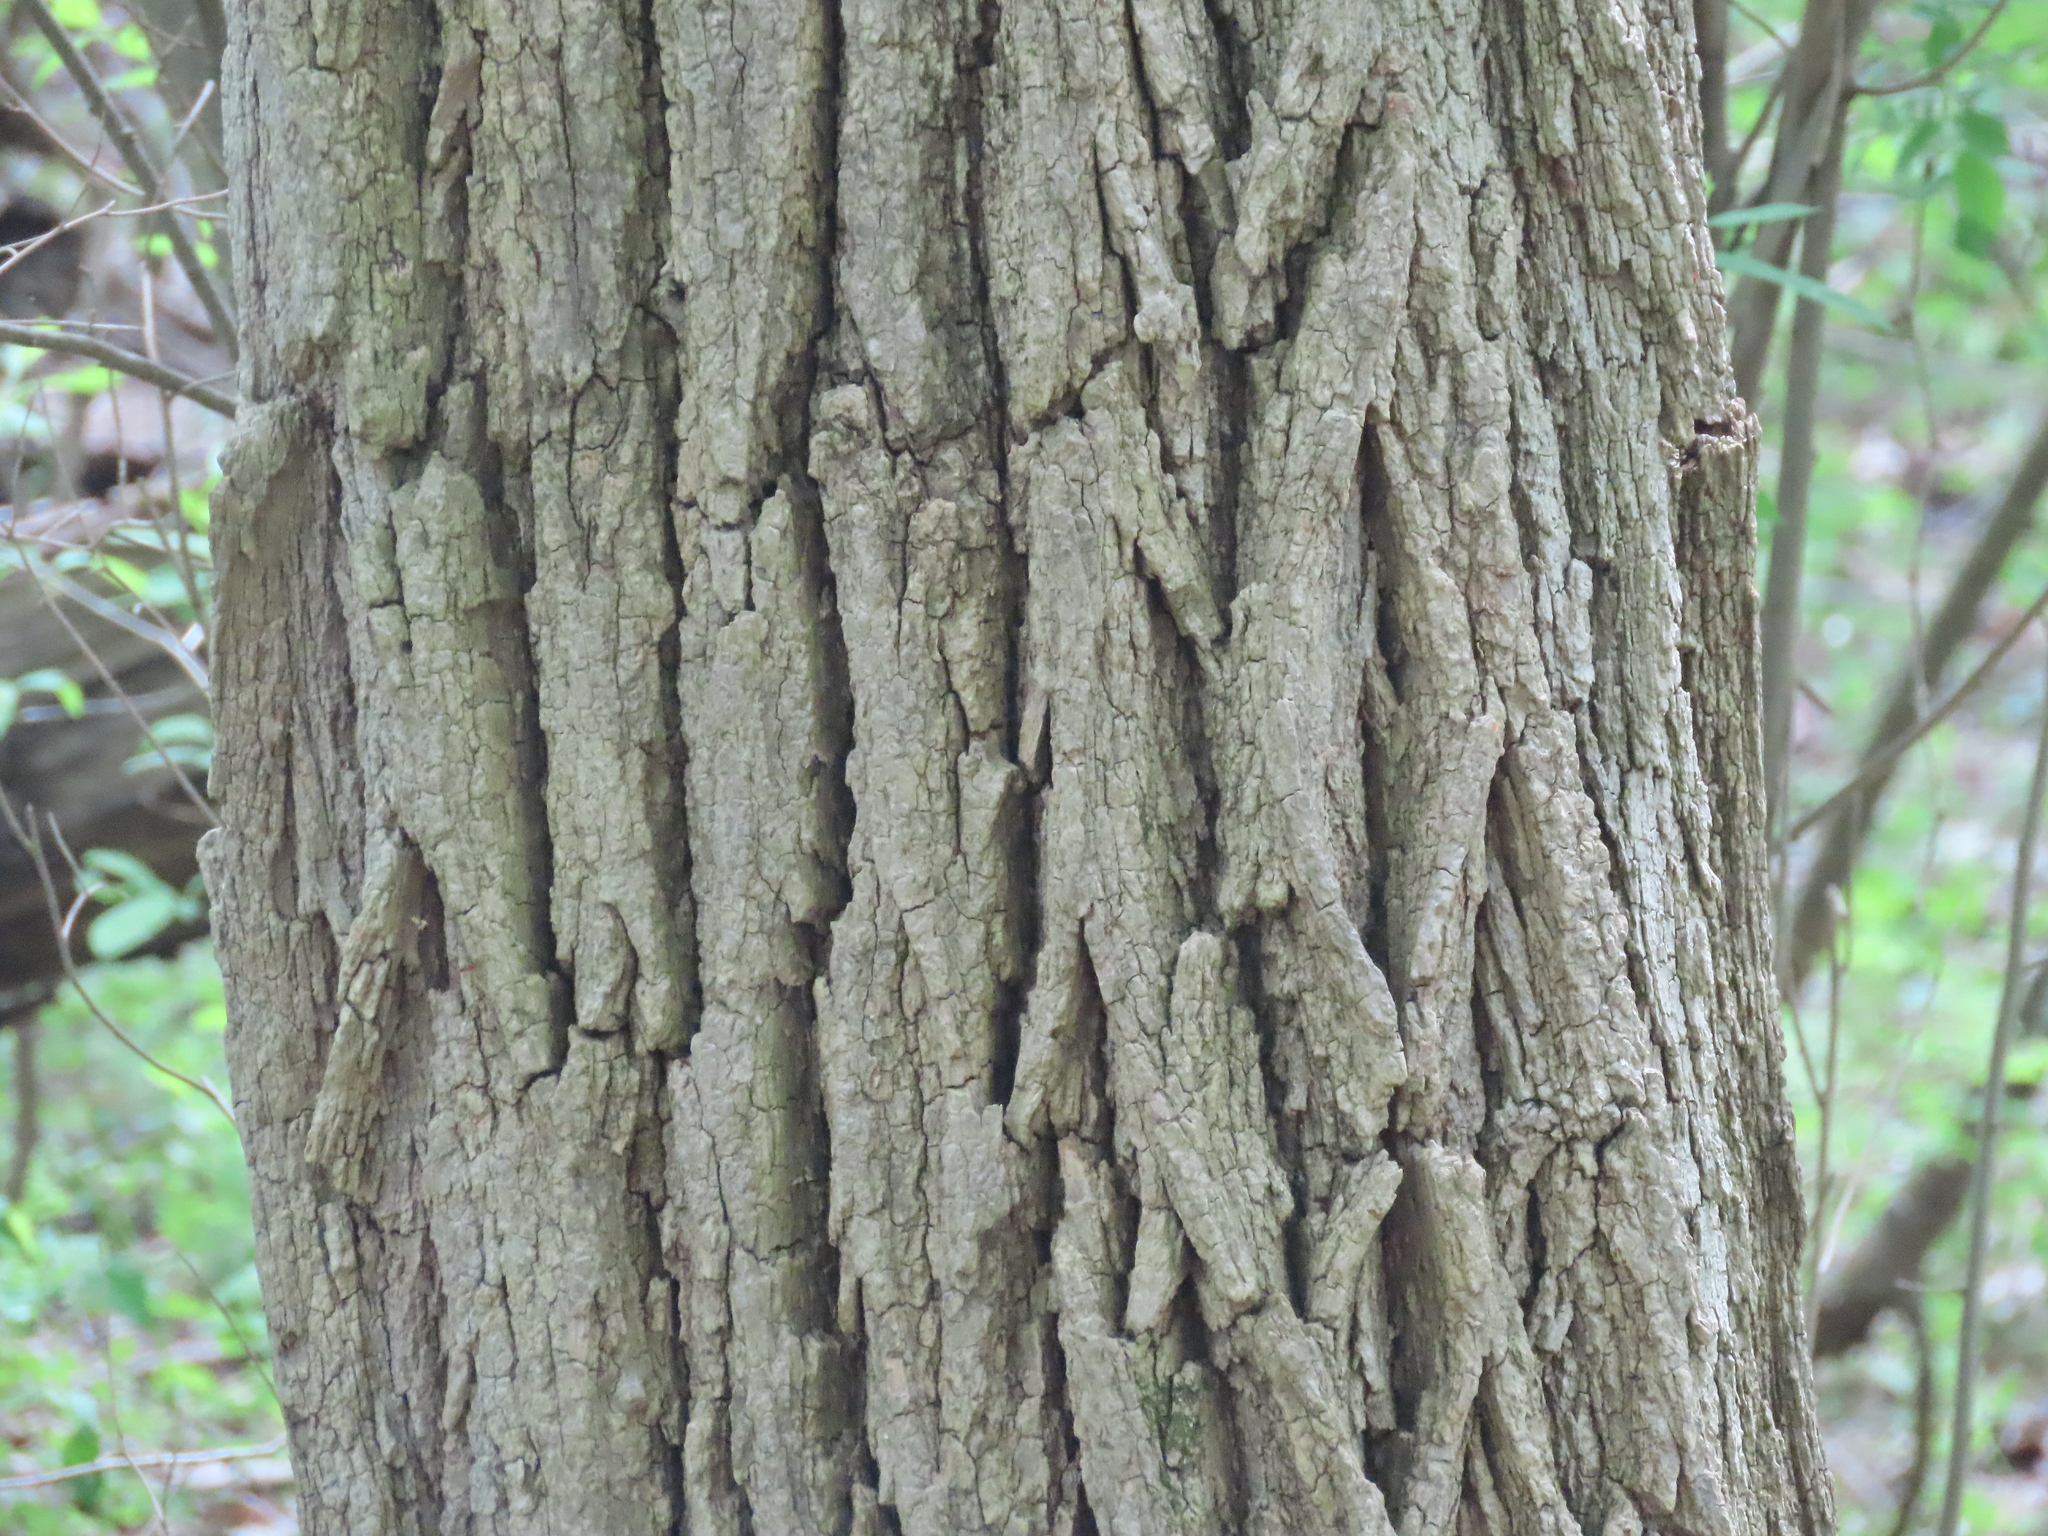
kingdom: Plantae
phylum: Tracheophyta
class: Magnoliopsida
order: Fabales
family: Fabaceae
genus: Robinia
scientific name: Robinia pseudoacacia
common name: Black locust
